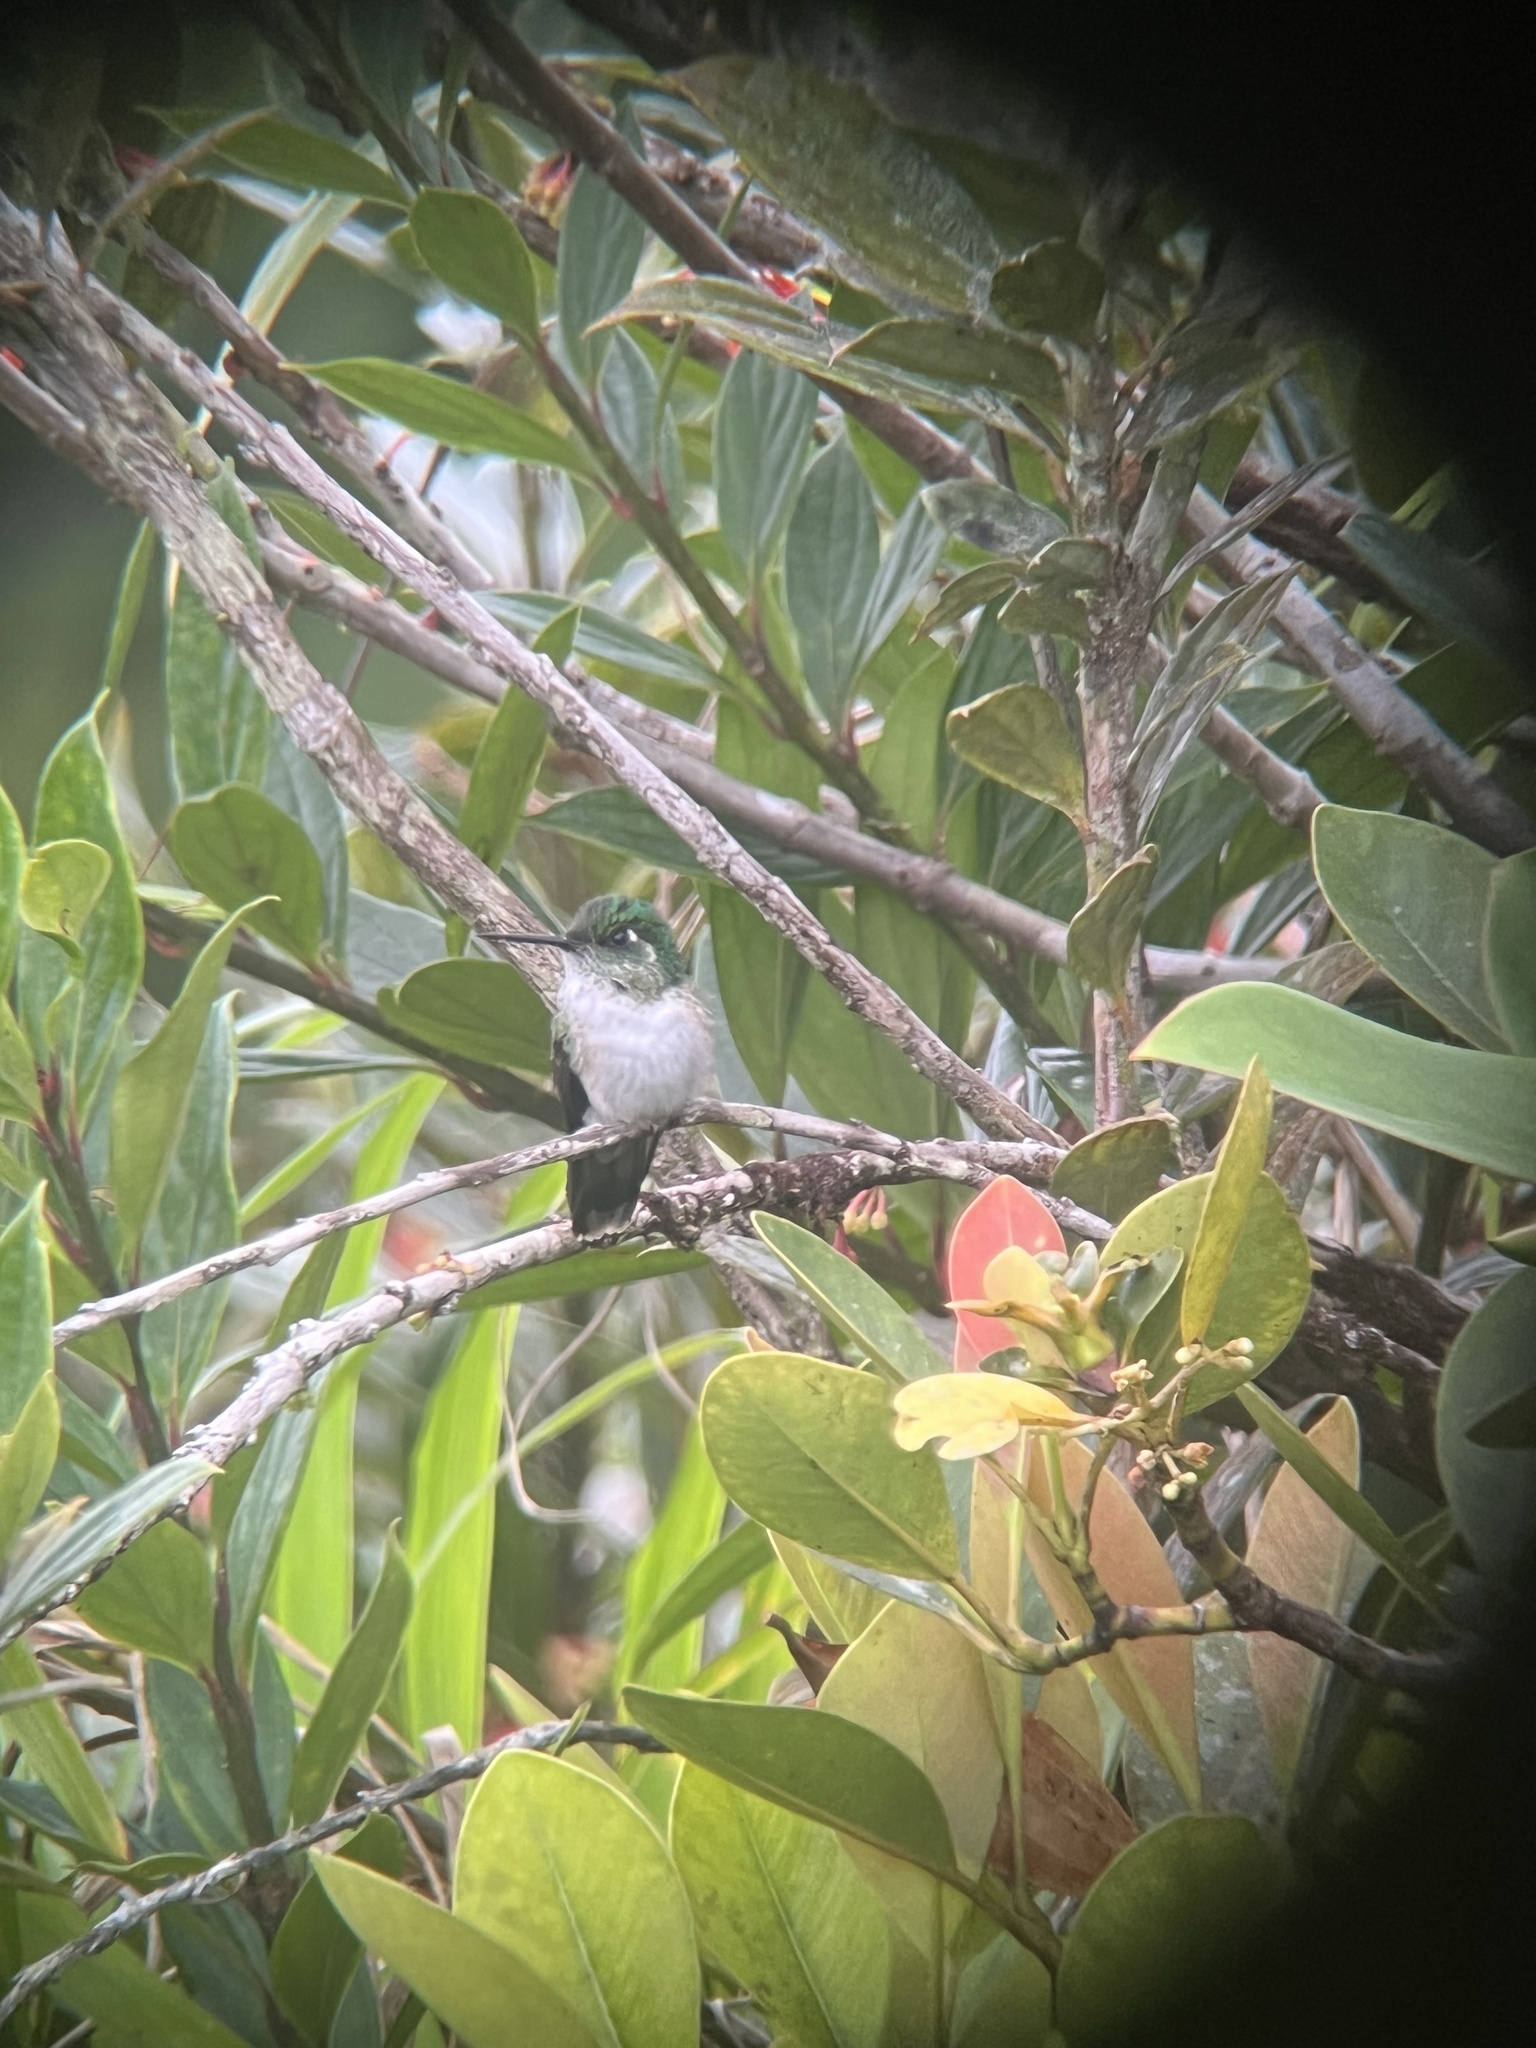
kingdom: Animalia
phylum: Chordata
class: Aves
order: Apodiformes
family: Trochilidae
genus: Lampornis
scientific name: Lampornis hemileucus
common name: White-bellied mountain-gem
